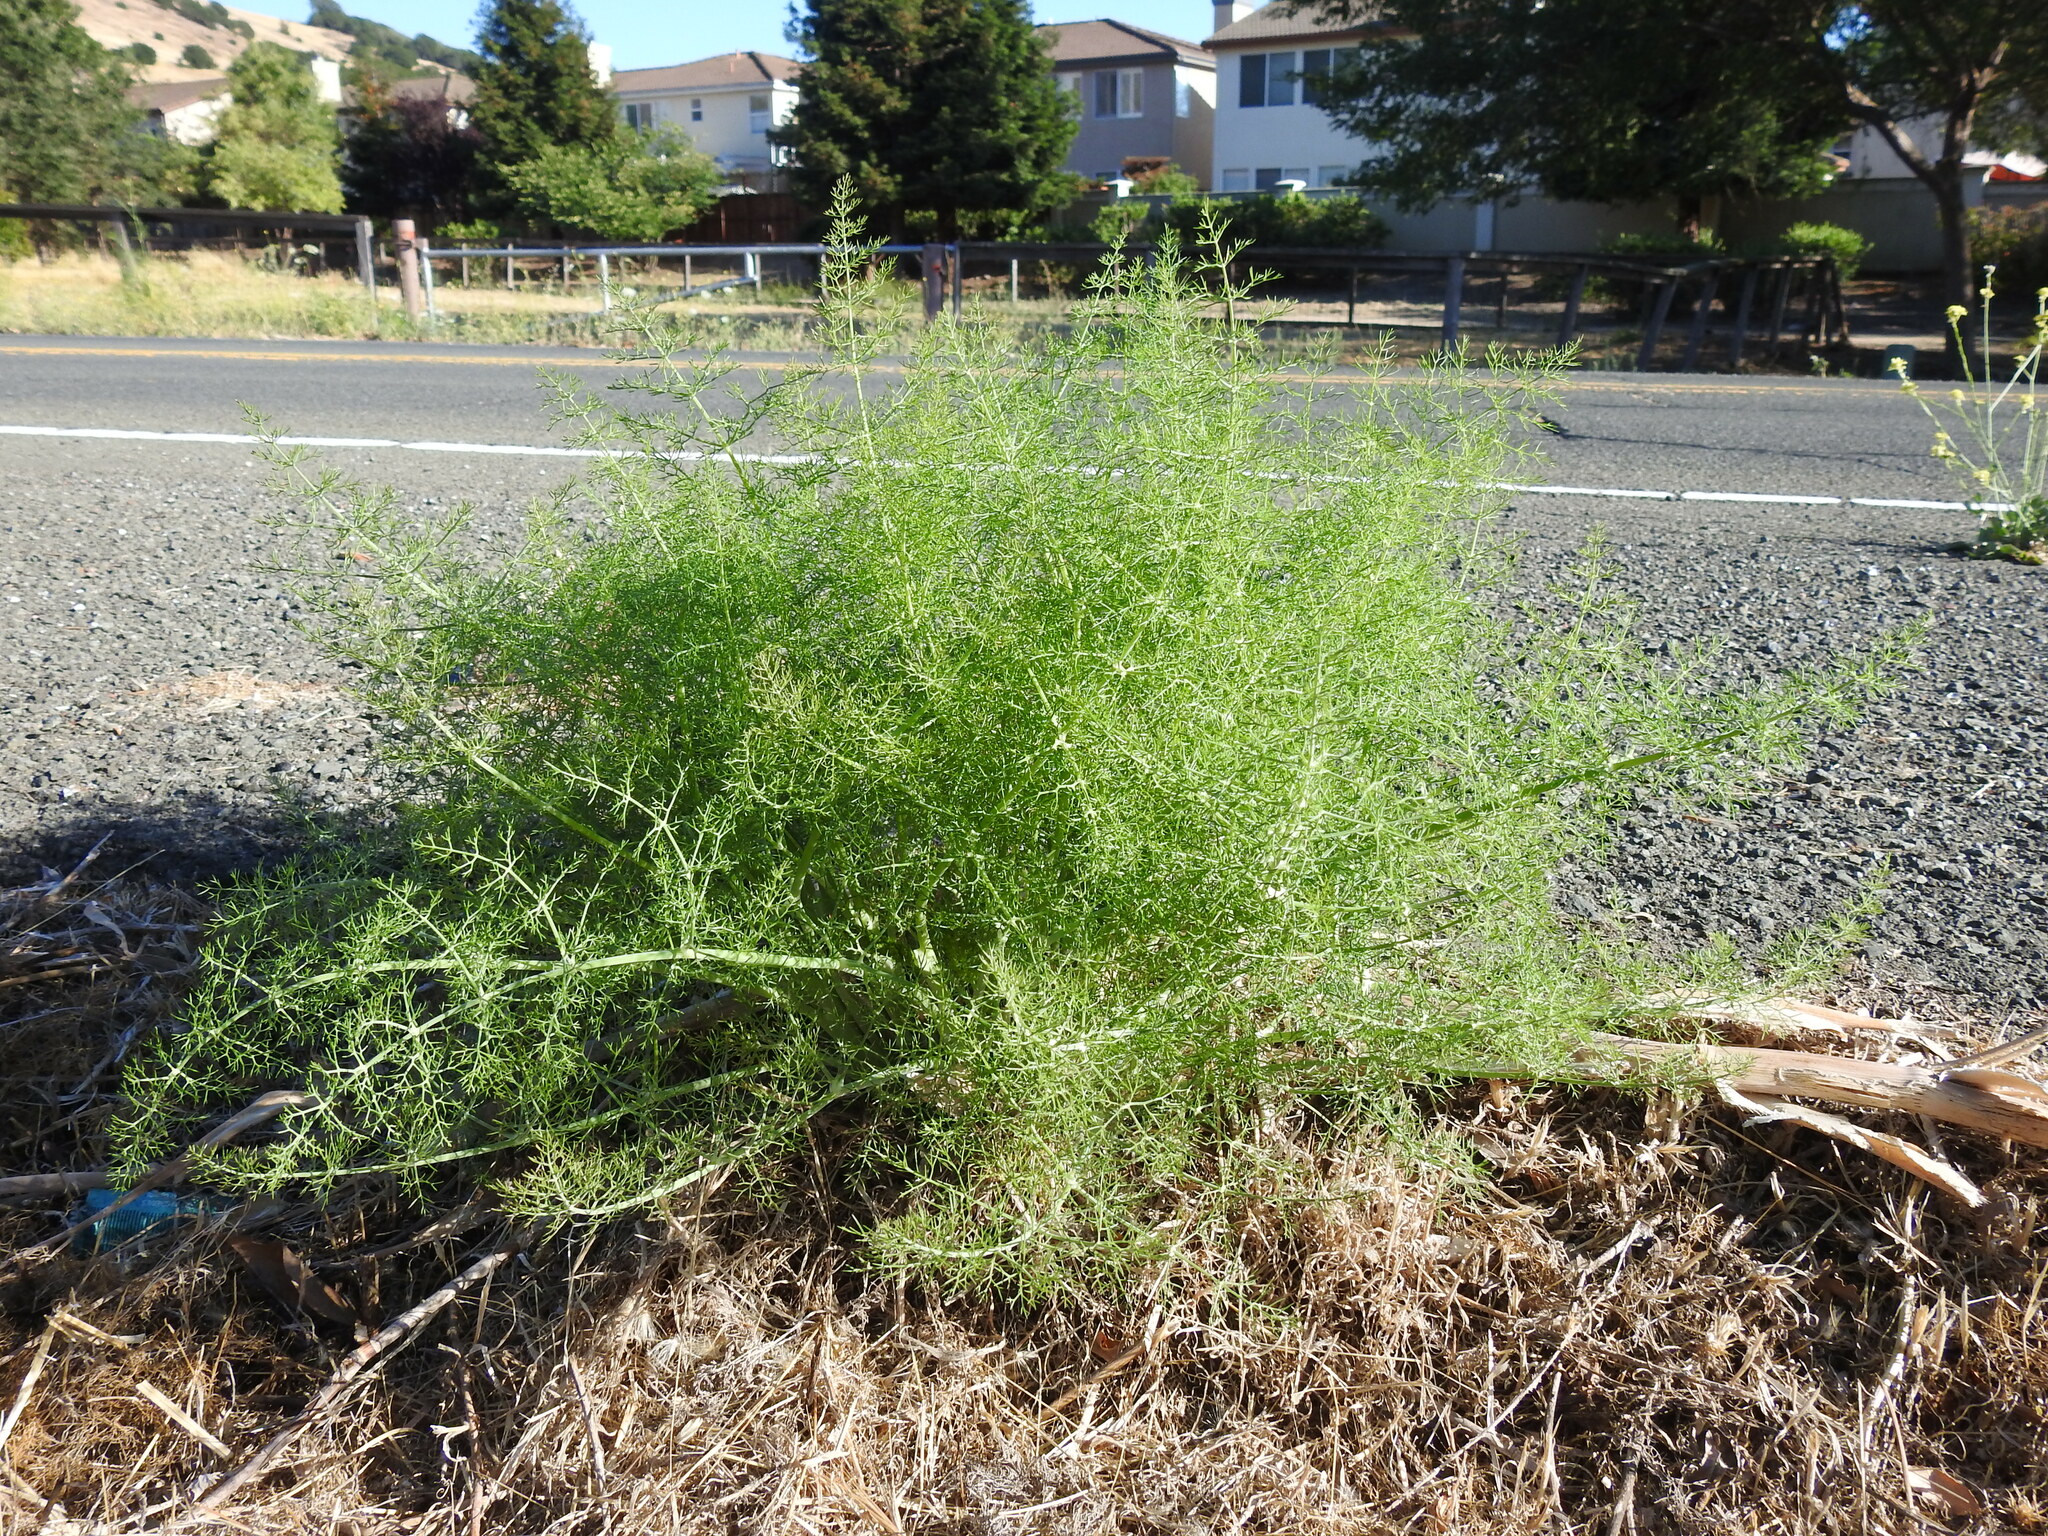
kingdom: Plantae
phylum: Tracheophyta
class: Magnoliopsida
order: Apiales
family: Apiaceae
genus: Foeniculum
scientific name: Foeniculum vulgare
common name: Fennel
